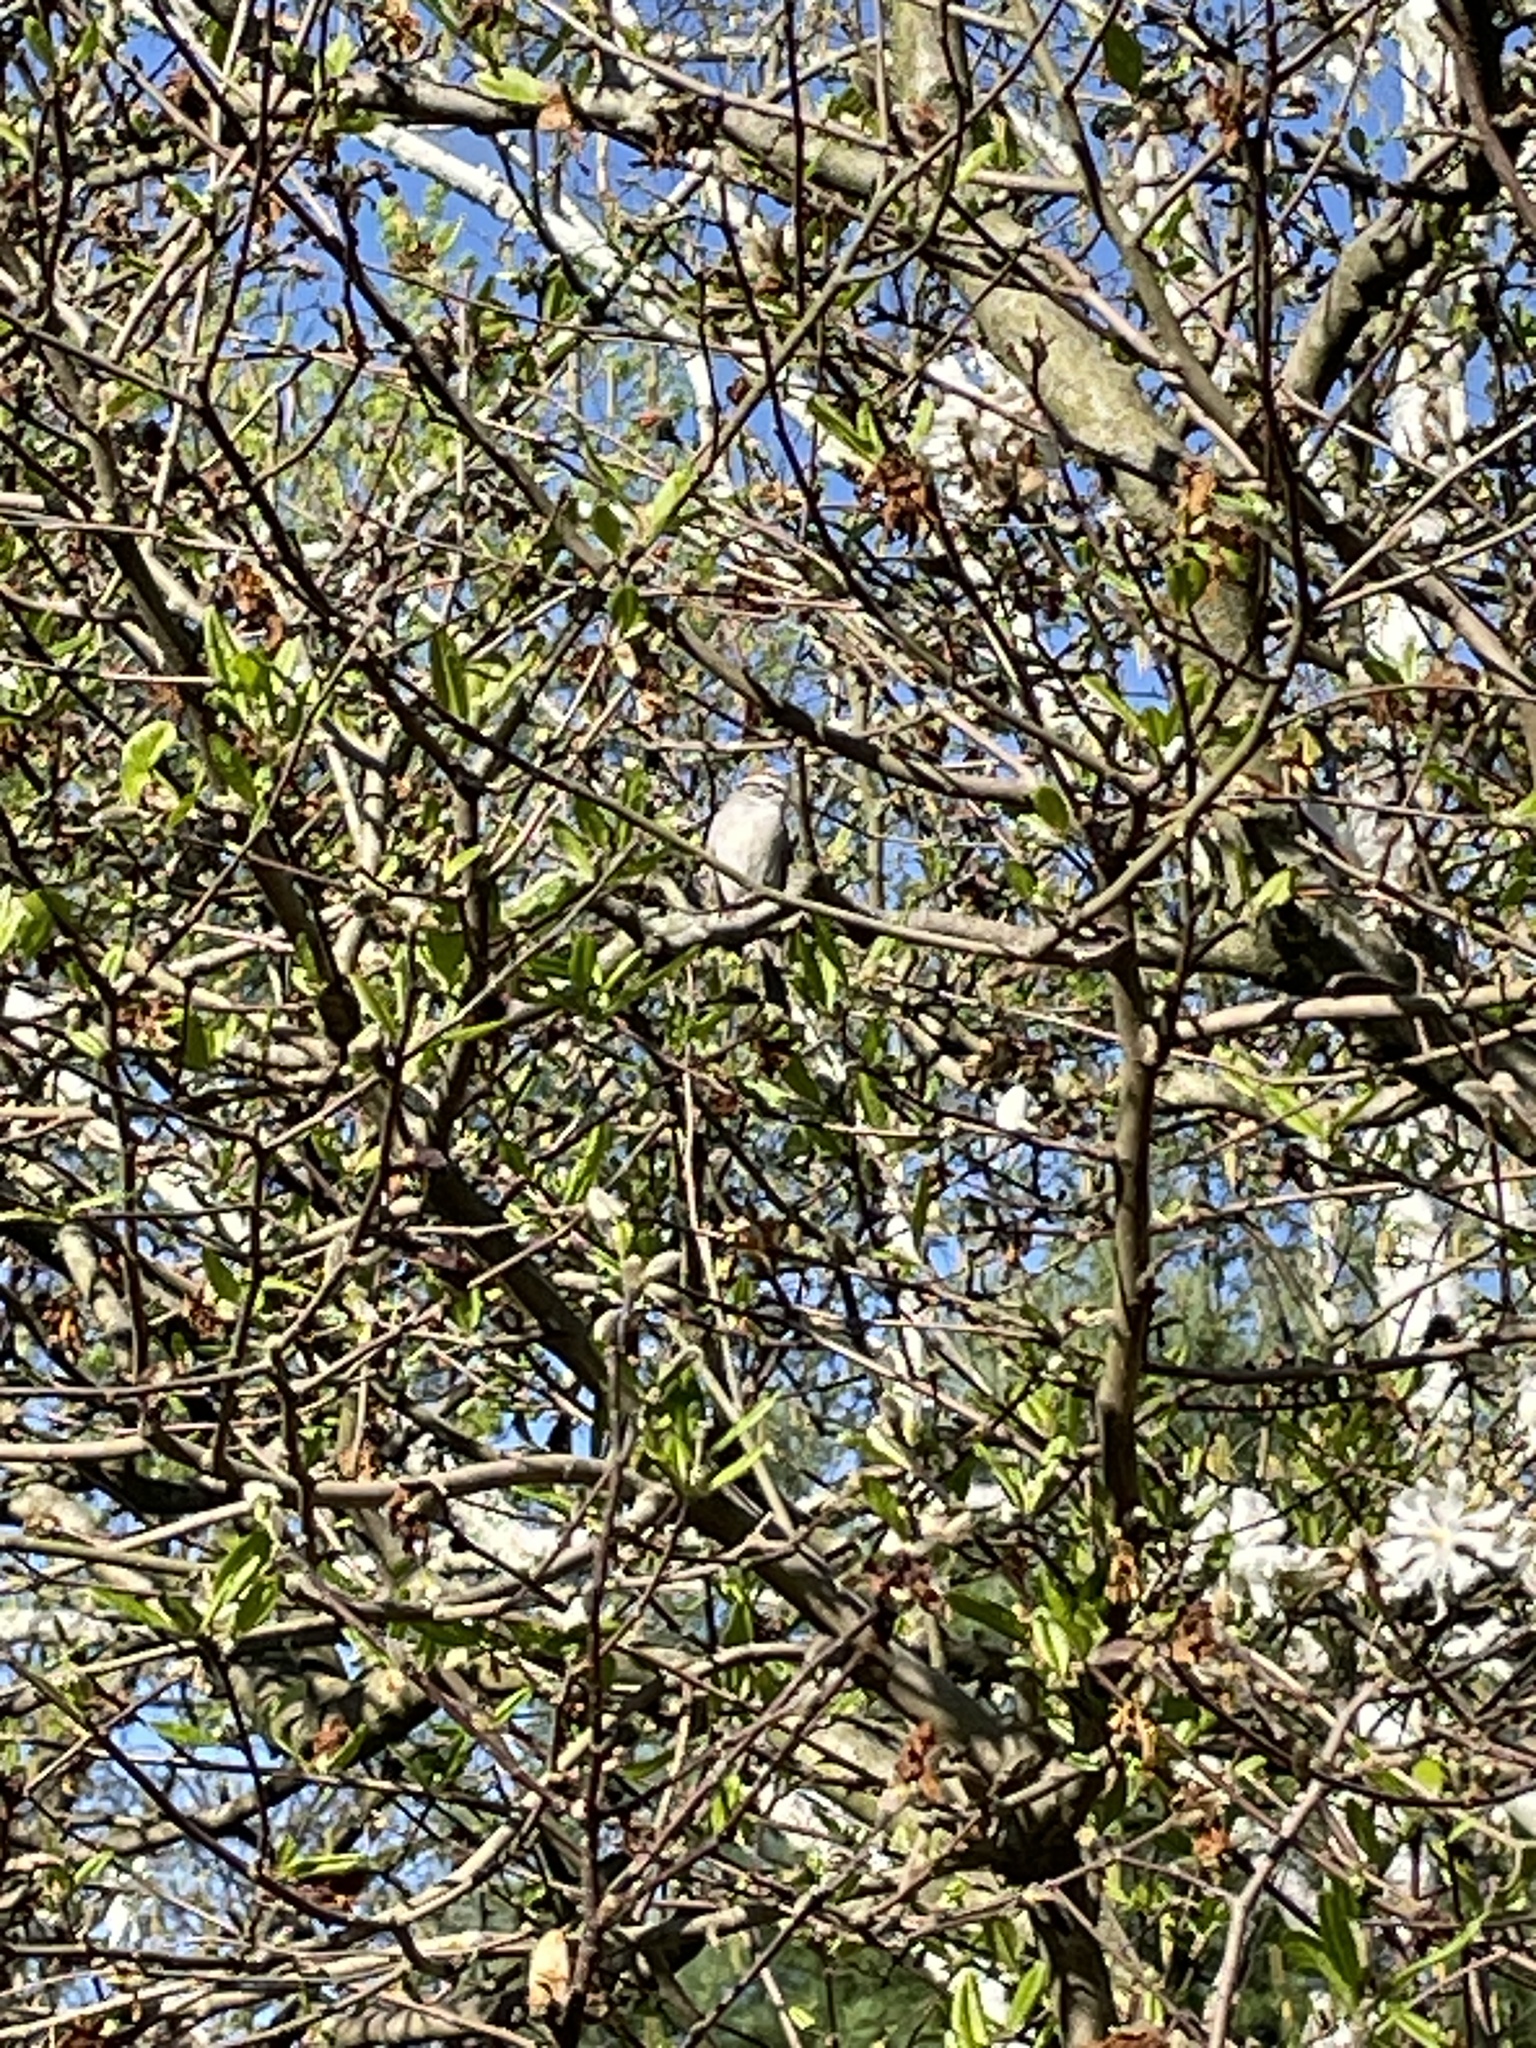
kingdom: Animalia
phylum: Chordata
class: Aves
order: Passeriformes
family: Passerellidae
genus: Spizella
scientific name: Spizella passerina
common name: Chipping sparrow
